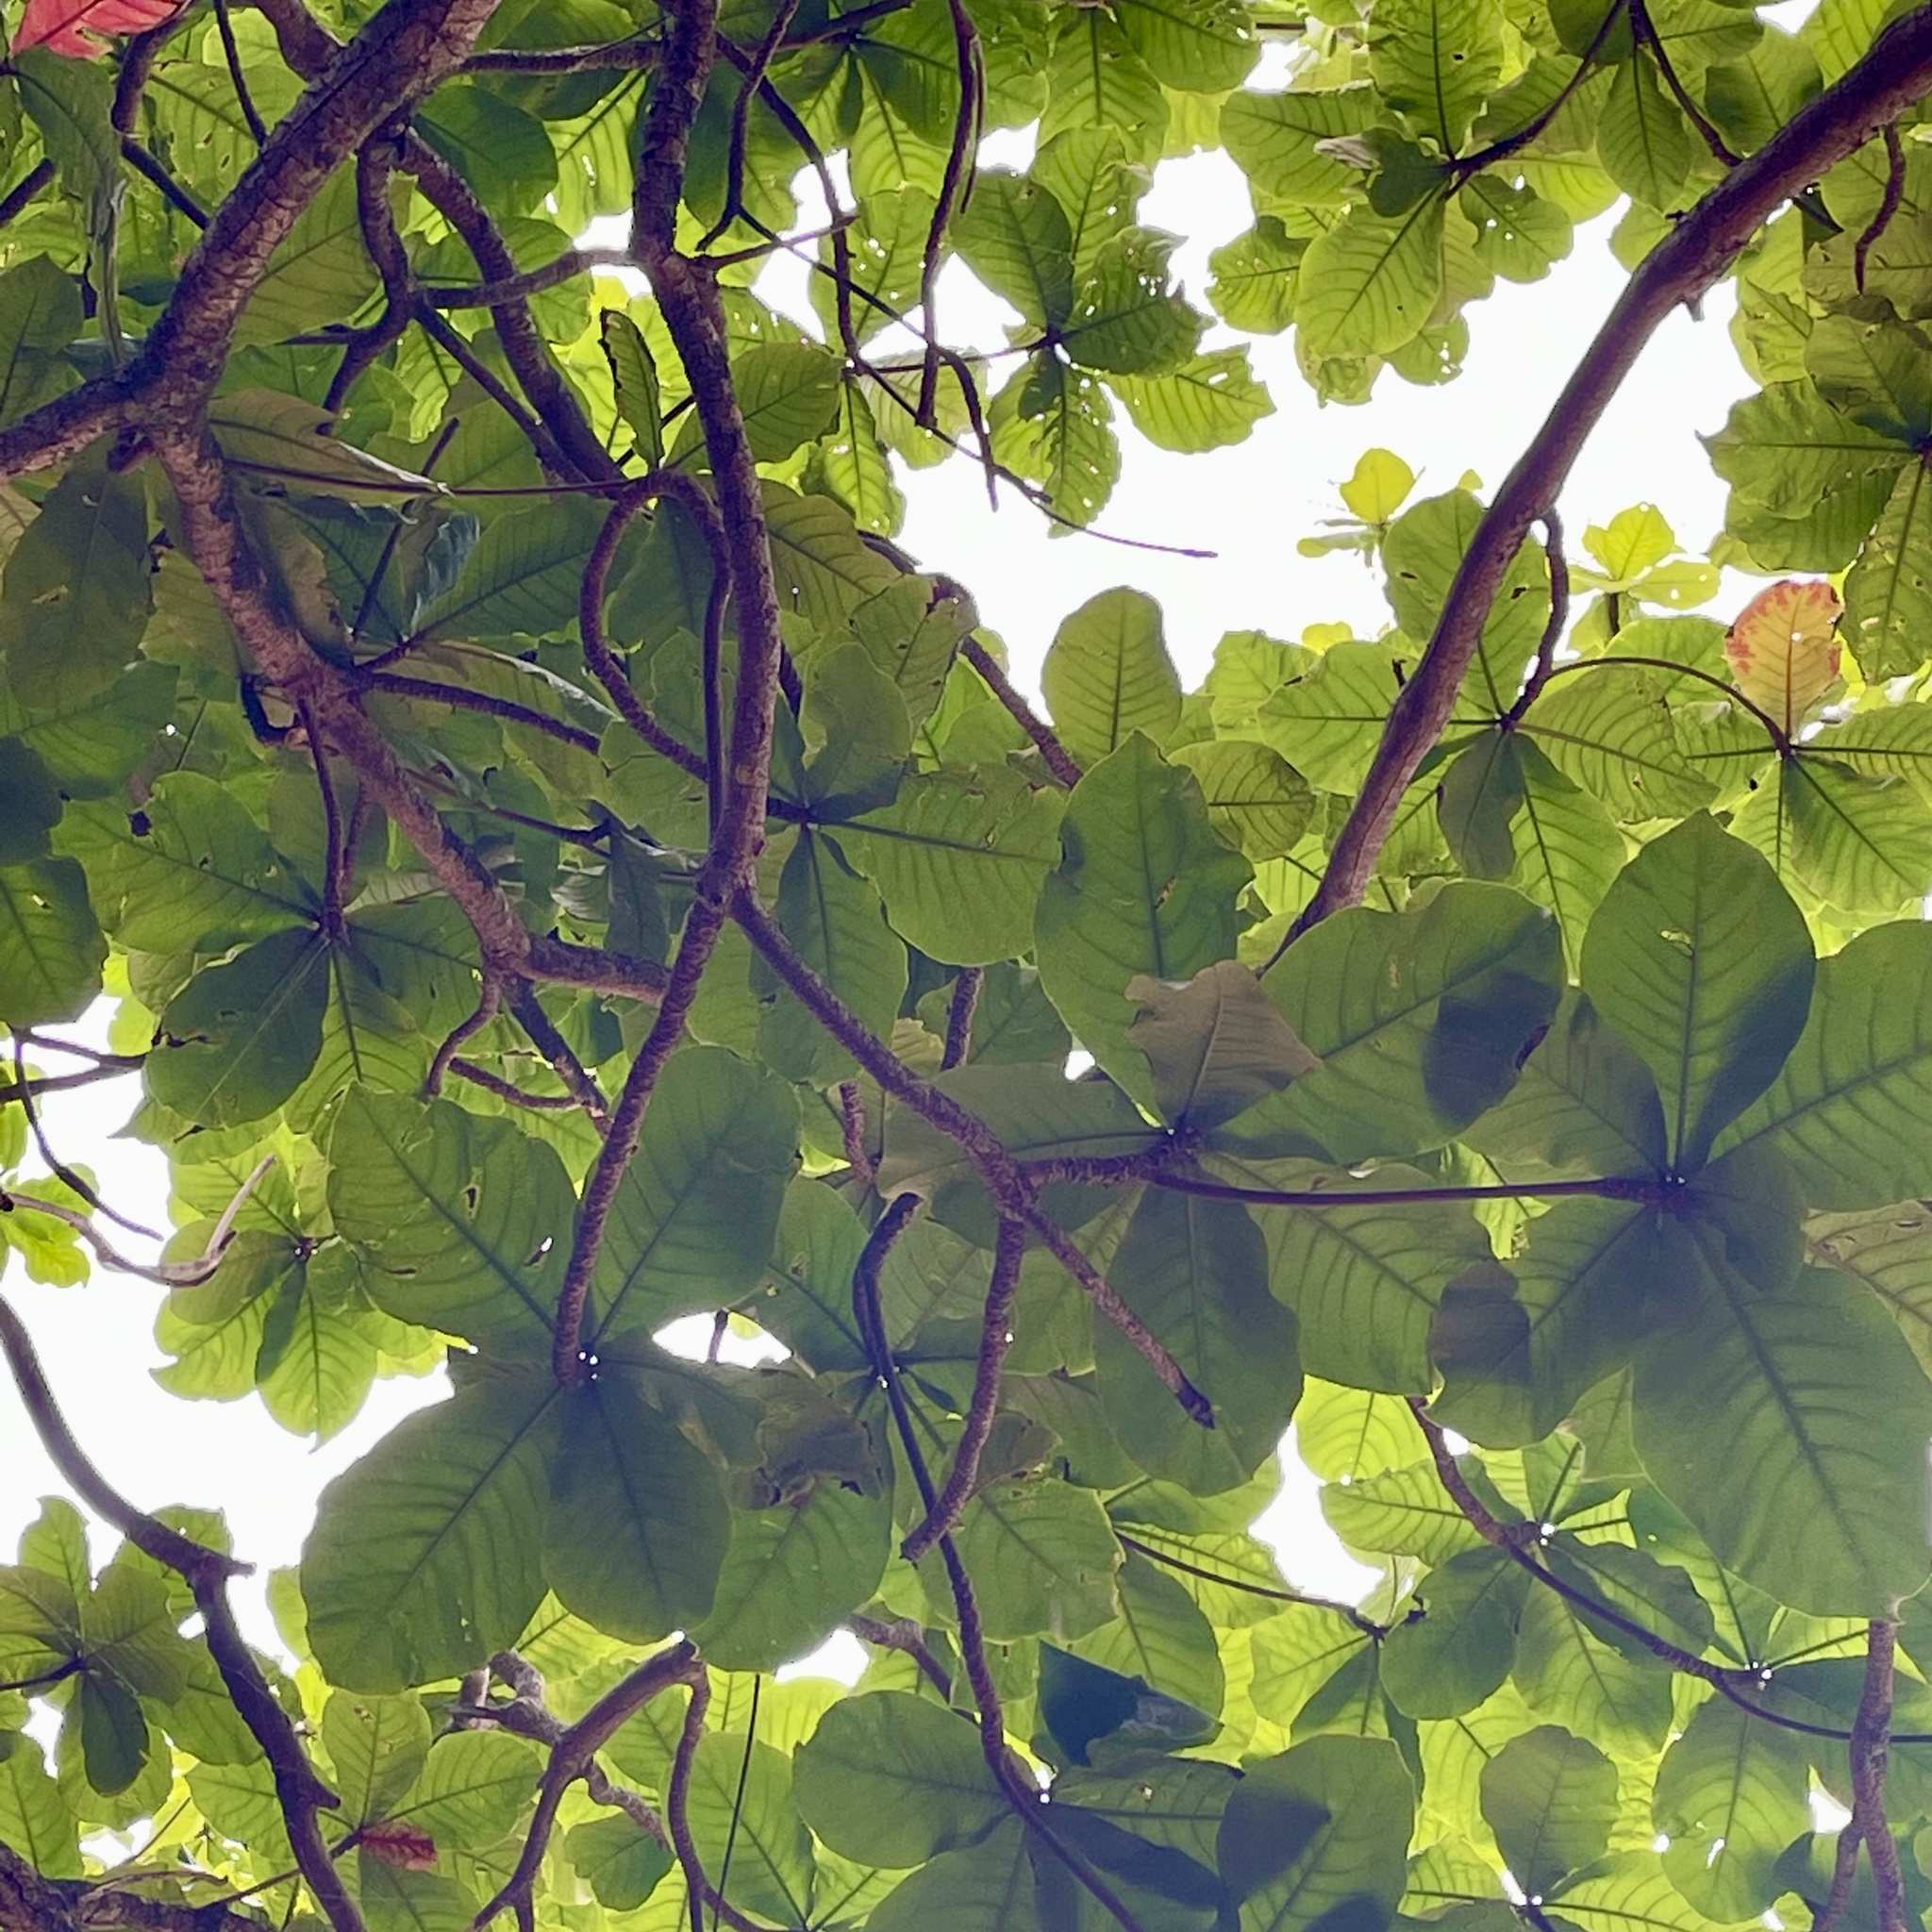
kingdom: Plantae
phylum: Tracheophyta
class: Magnoliopsida
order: Myrtales
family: Combretaceae
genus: Terminalia
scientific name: Terminalia catappa
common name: Tropical almond
